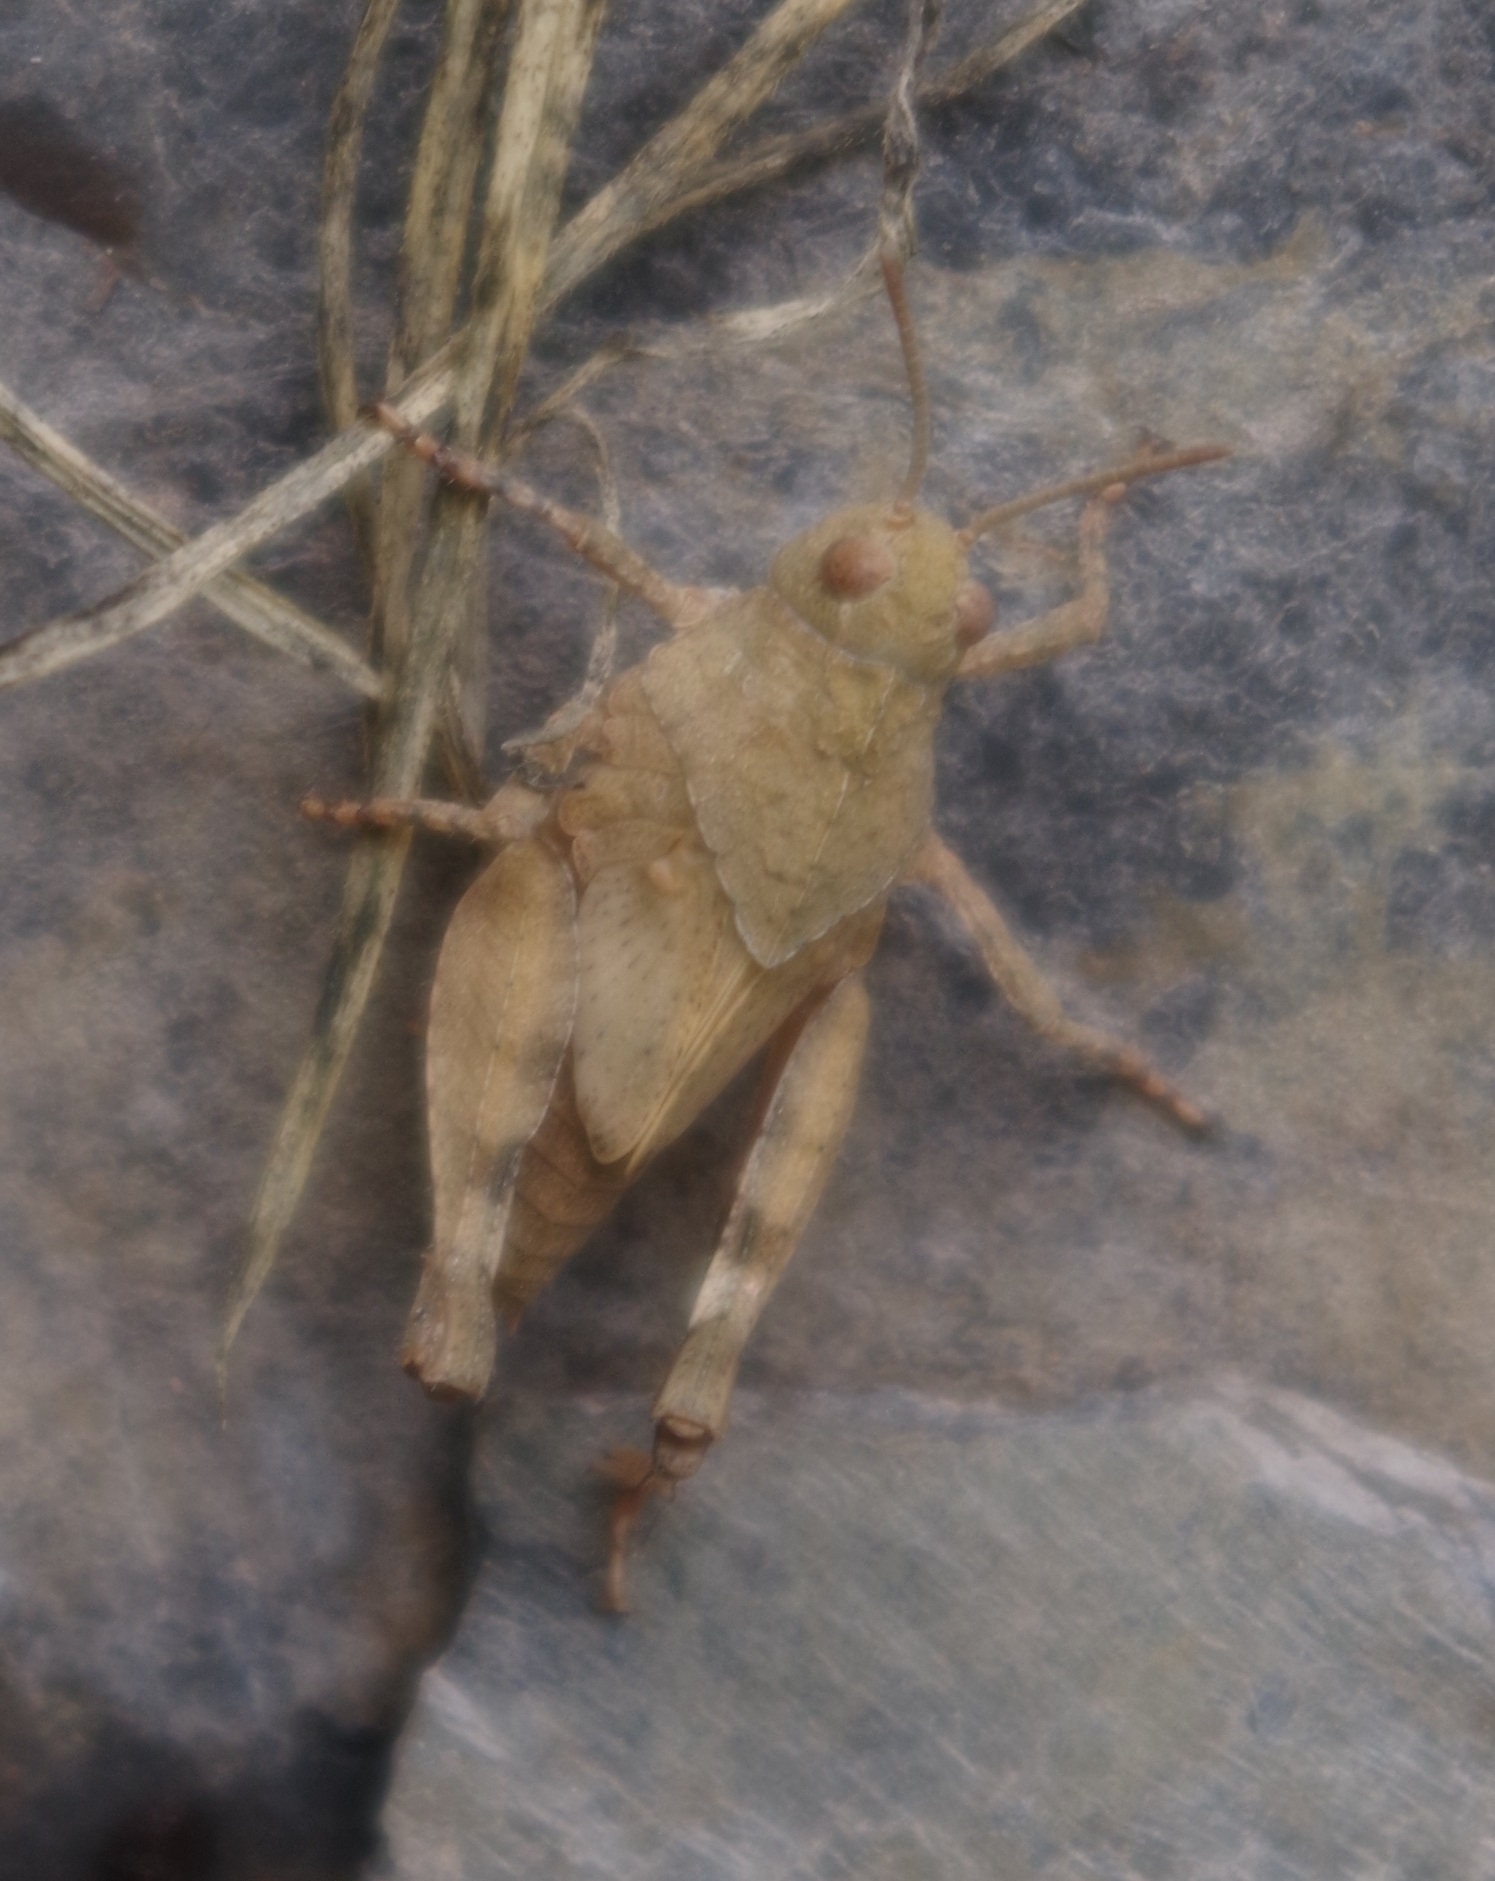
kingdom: Animalia
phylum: Arthropoda
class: Insecta
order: Orthoptera
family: Acrididae
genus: Oedipoda
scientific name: Oedipoda caerulescens
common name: Blue-winged grasshopper
